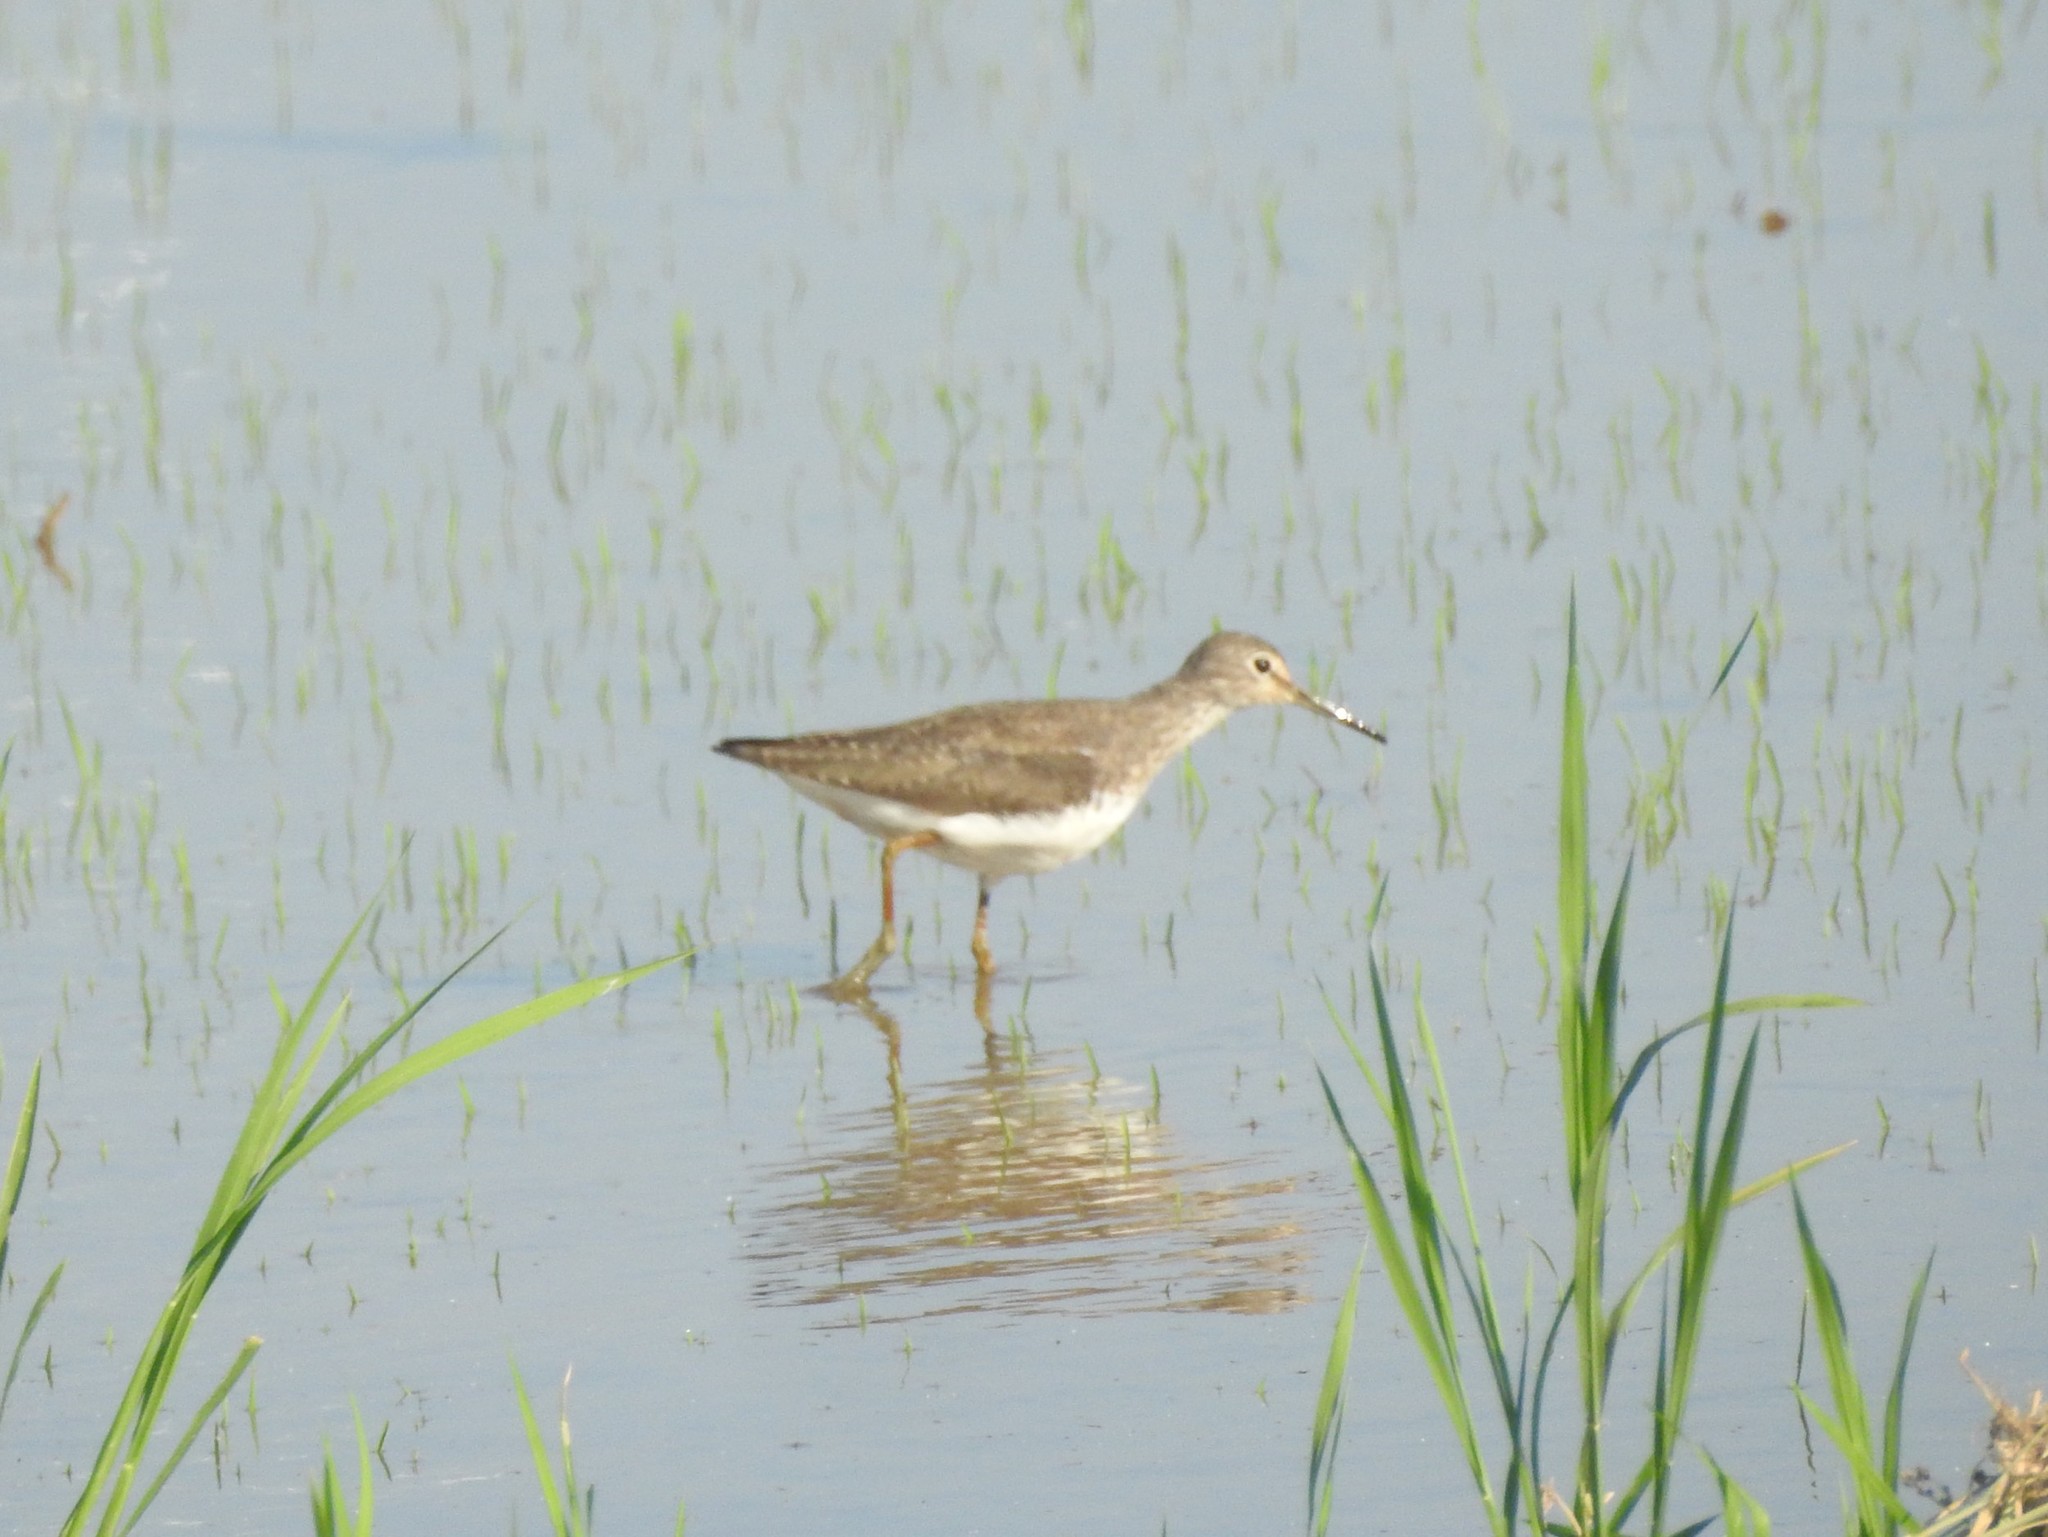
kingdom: Animalia
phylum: Chordata
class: Aves
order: Charadriiformes
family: Scolopacidae
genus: Tringa
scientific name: Tringa ochropus
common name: Green sandpiper
